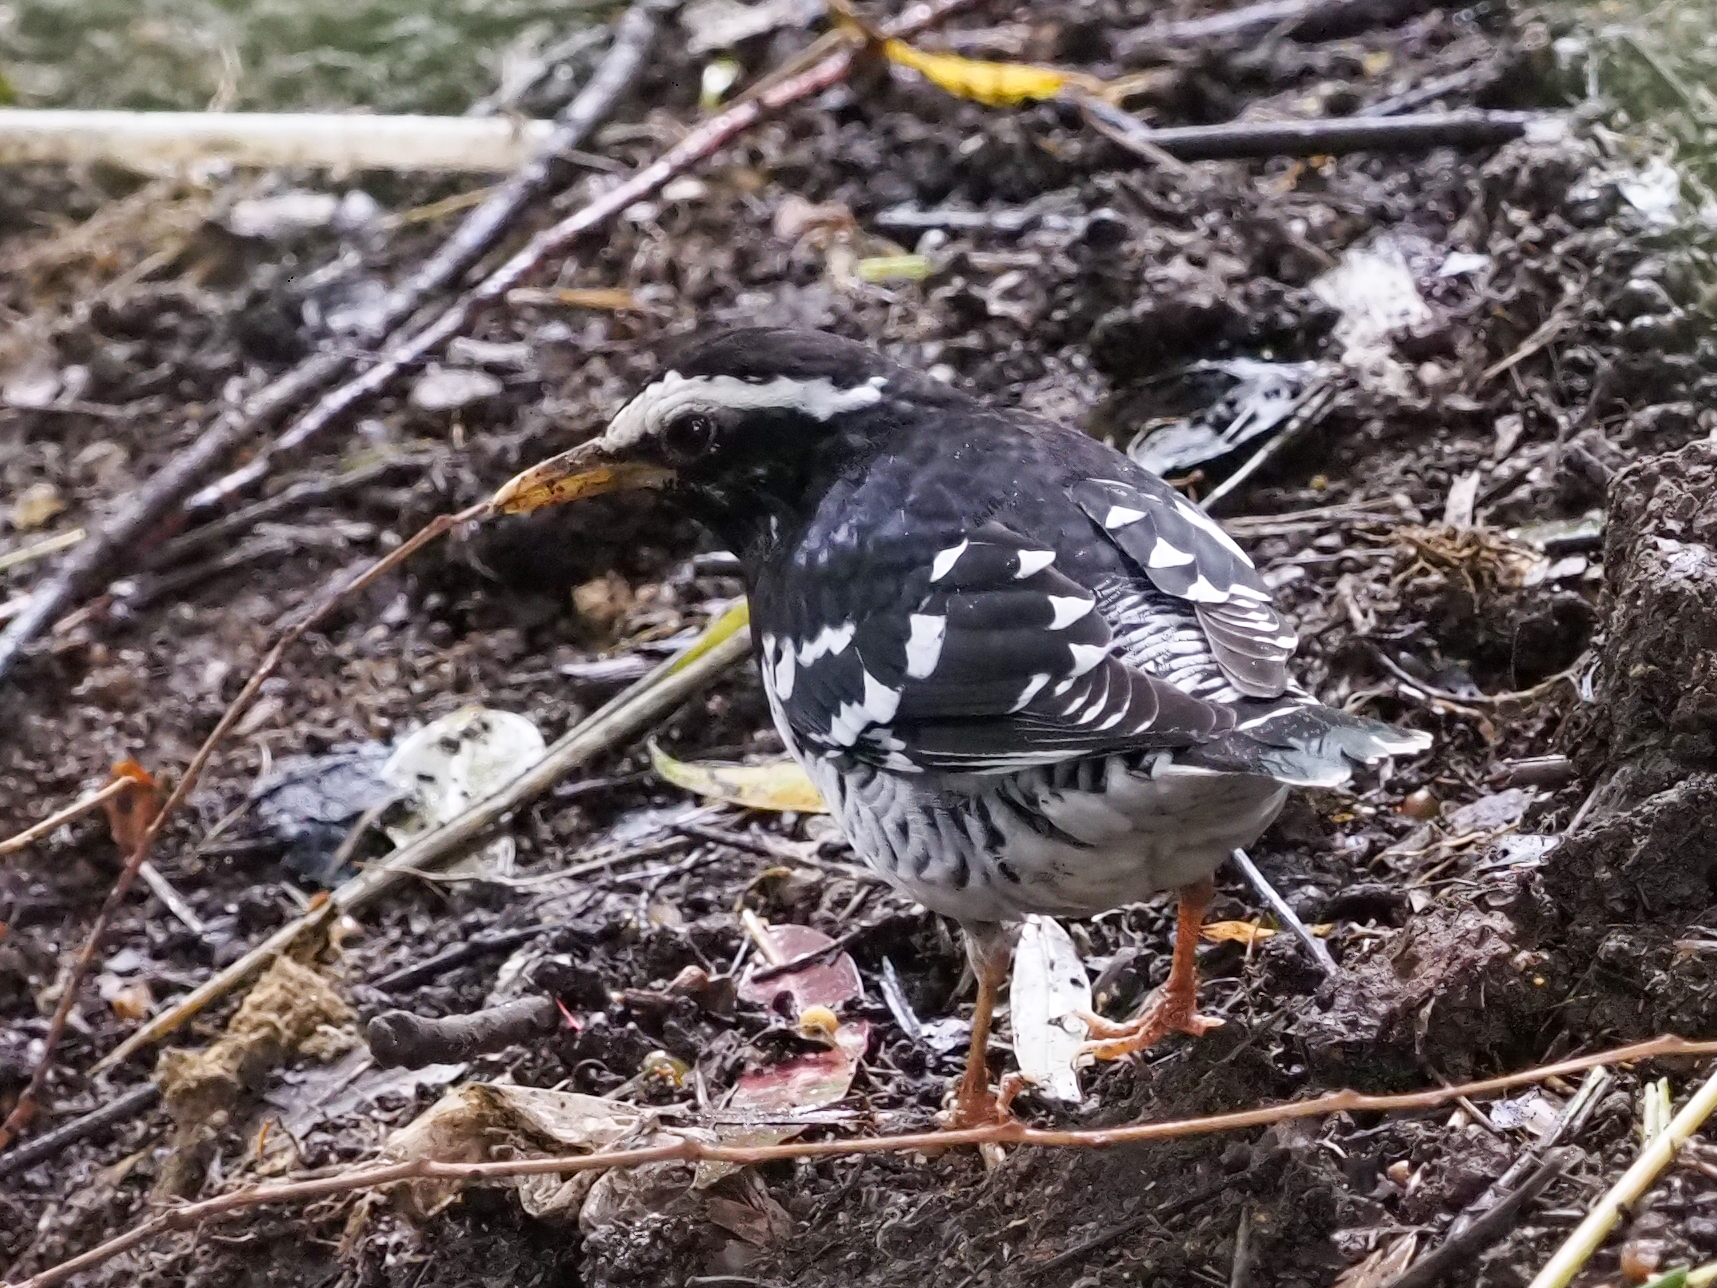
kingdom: Animalia
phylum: Chordata
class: Aves
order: Passeriformes
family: Turdidae
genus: Geokichla
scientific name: Geokichla wardii
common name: Pied thrush
